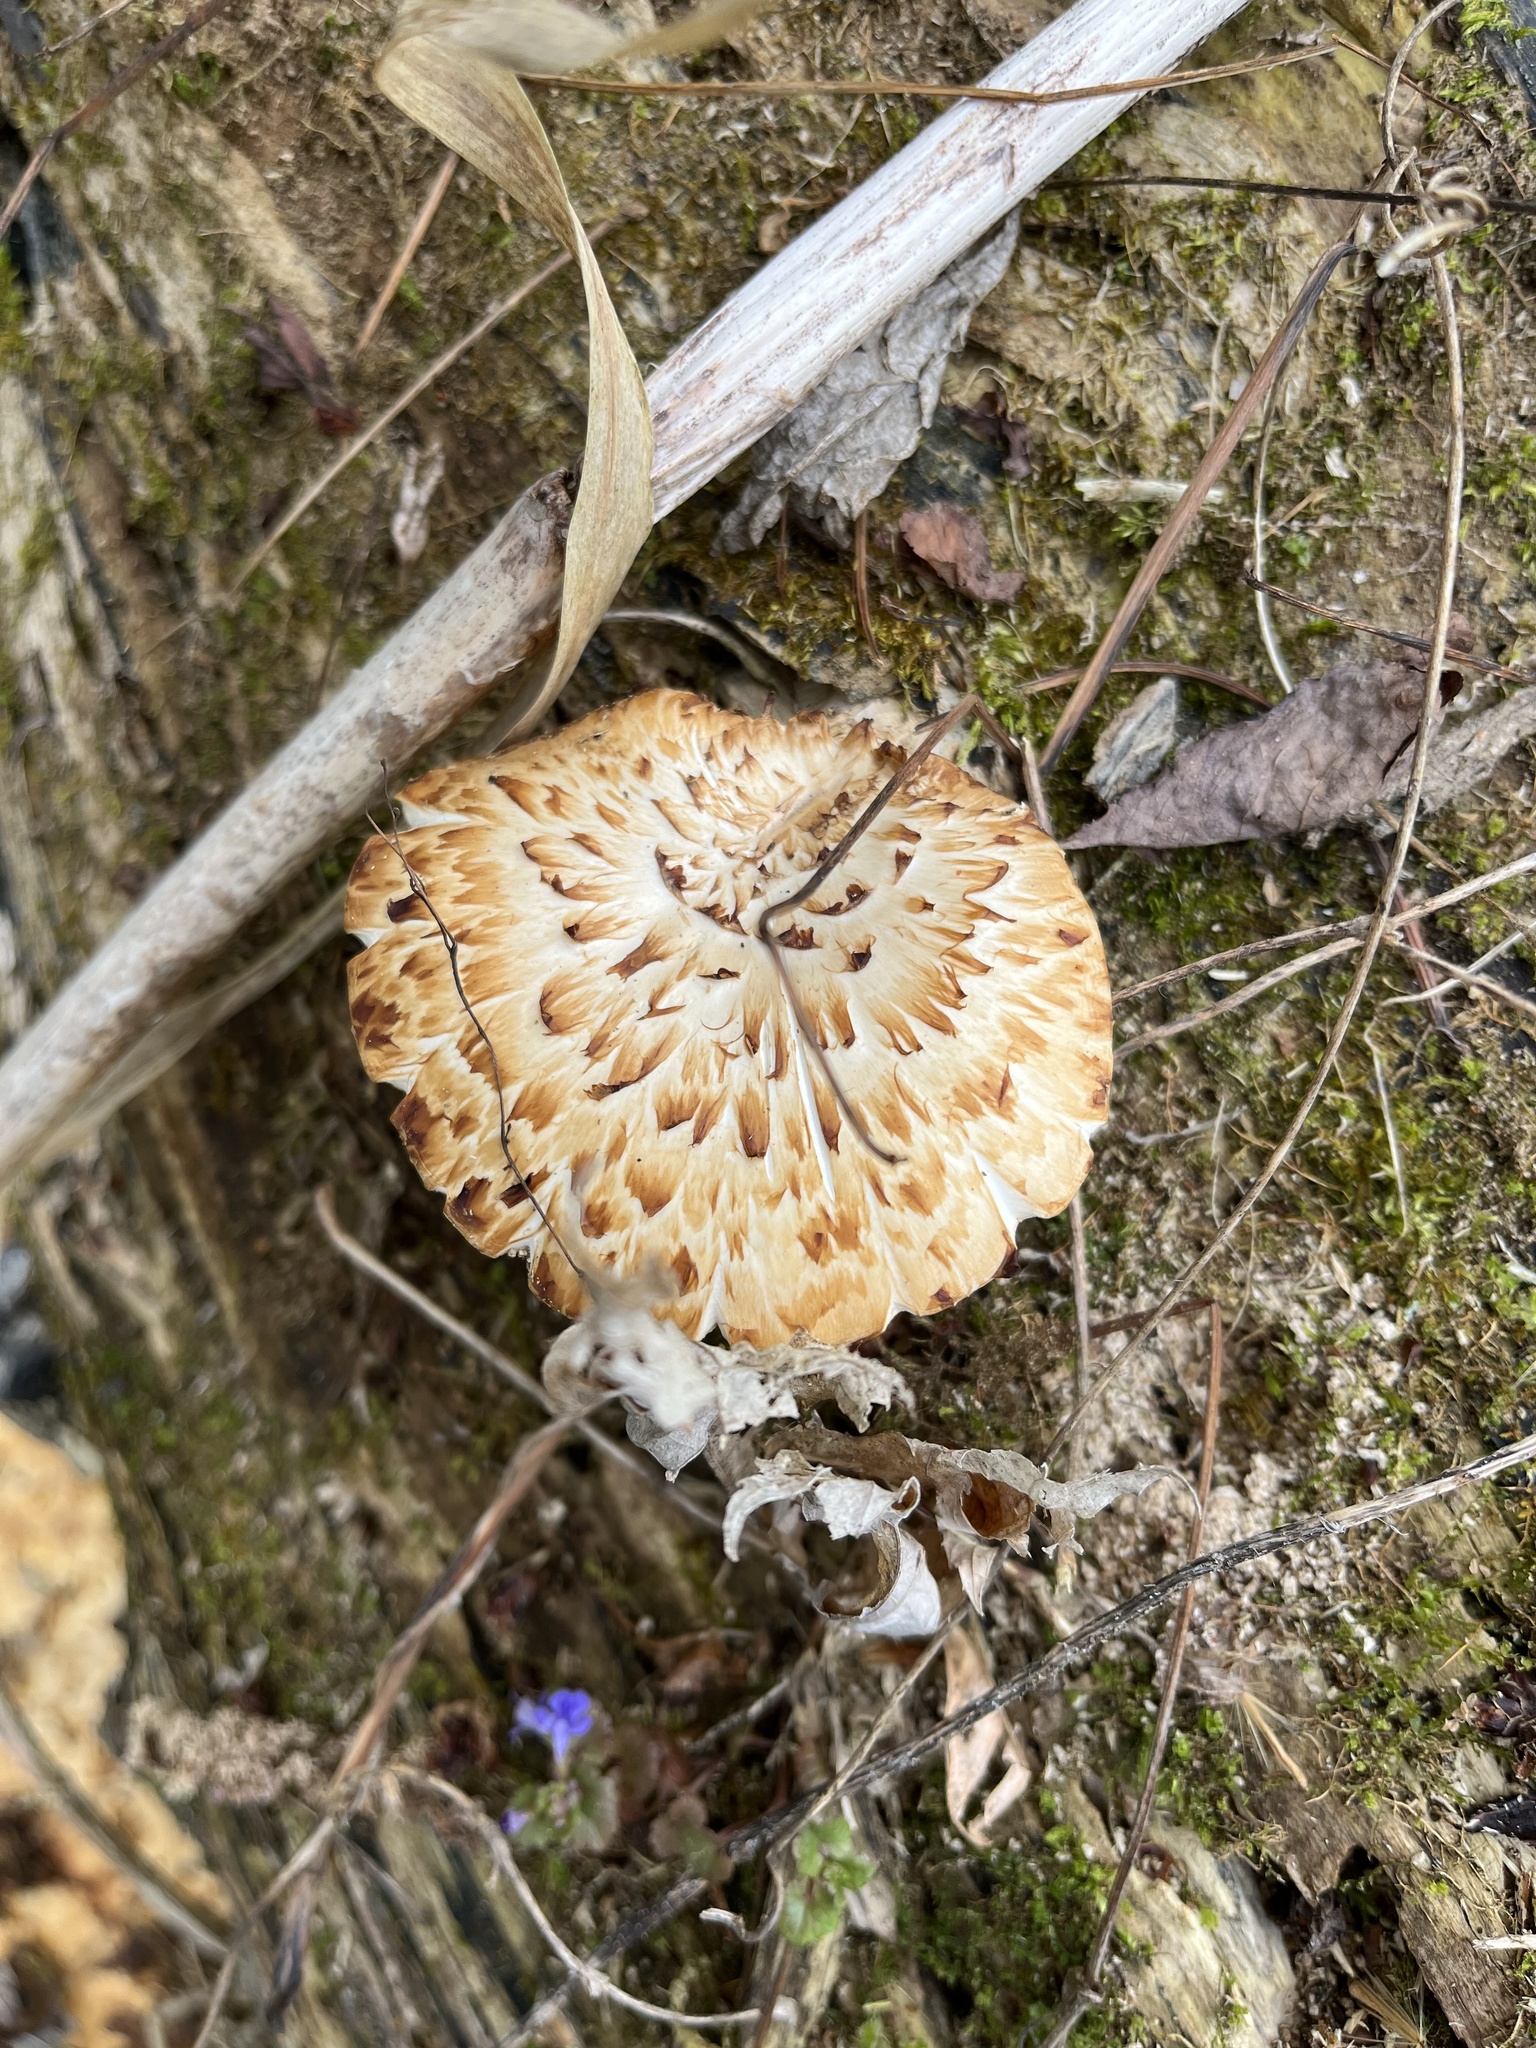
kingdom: Fungi
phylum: Basidiomycota
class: Agaricomycetes
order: Polyporales
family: Polyporaceae
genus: Cerioporus
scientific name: Cerioporus squamosus
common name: Dryad's saddle
